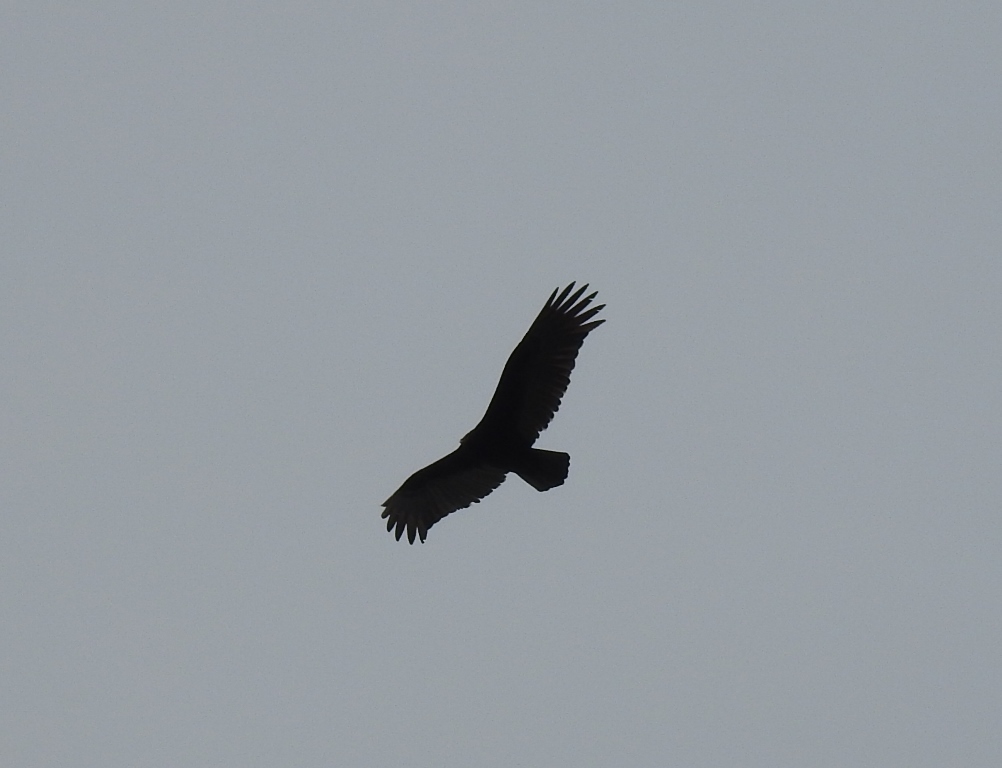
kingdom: Animalia
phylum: Chordata
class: Aves
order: Accipitriformes
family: Cathartidae
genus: Cathartes
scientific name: Cathartes aura
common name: Turkey vulture
